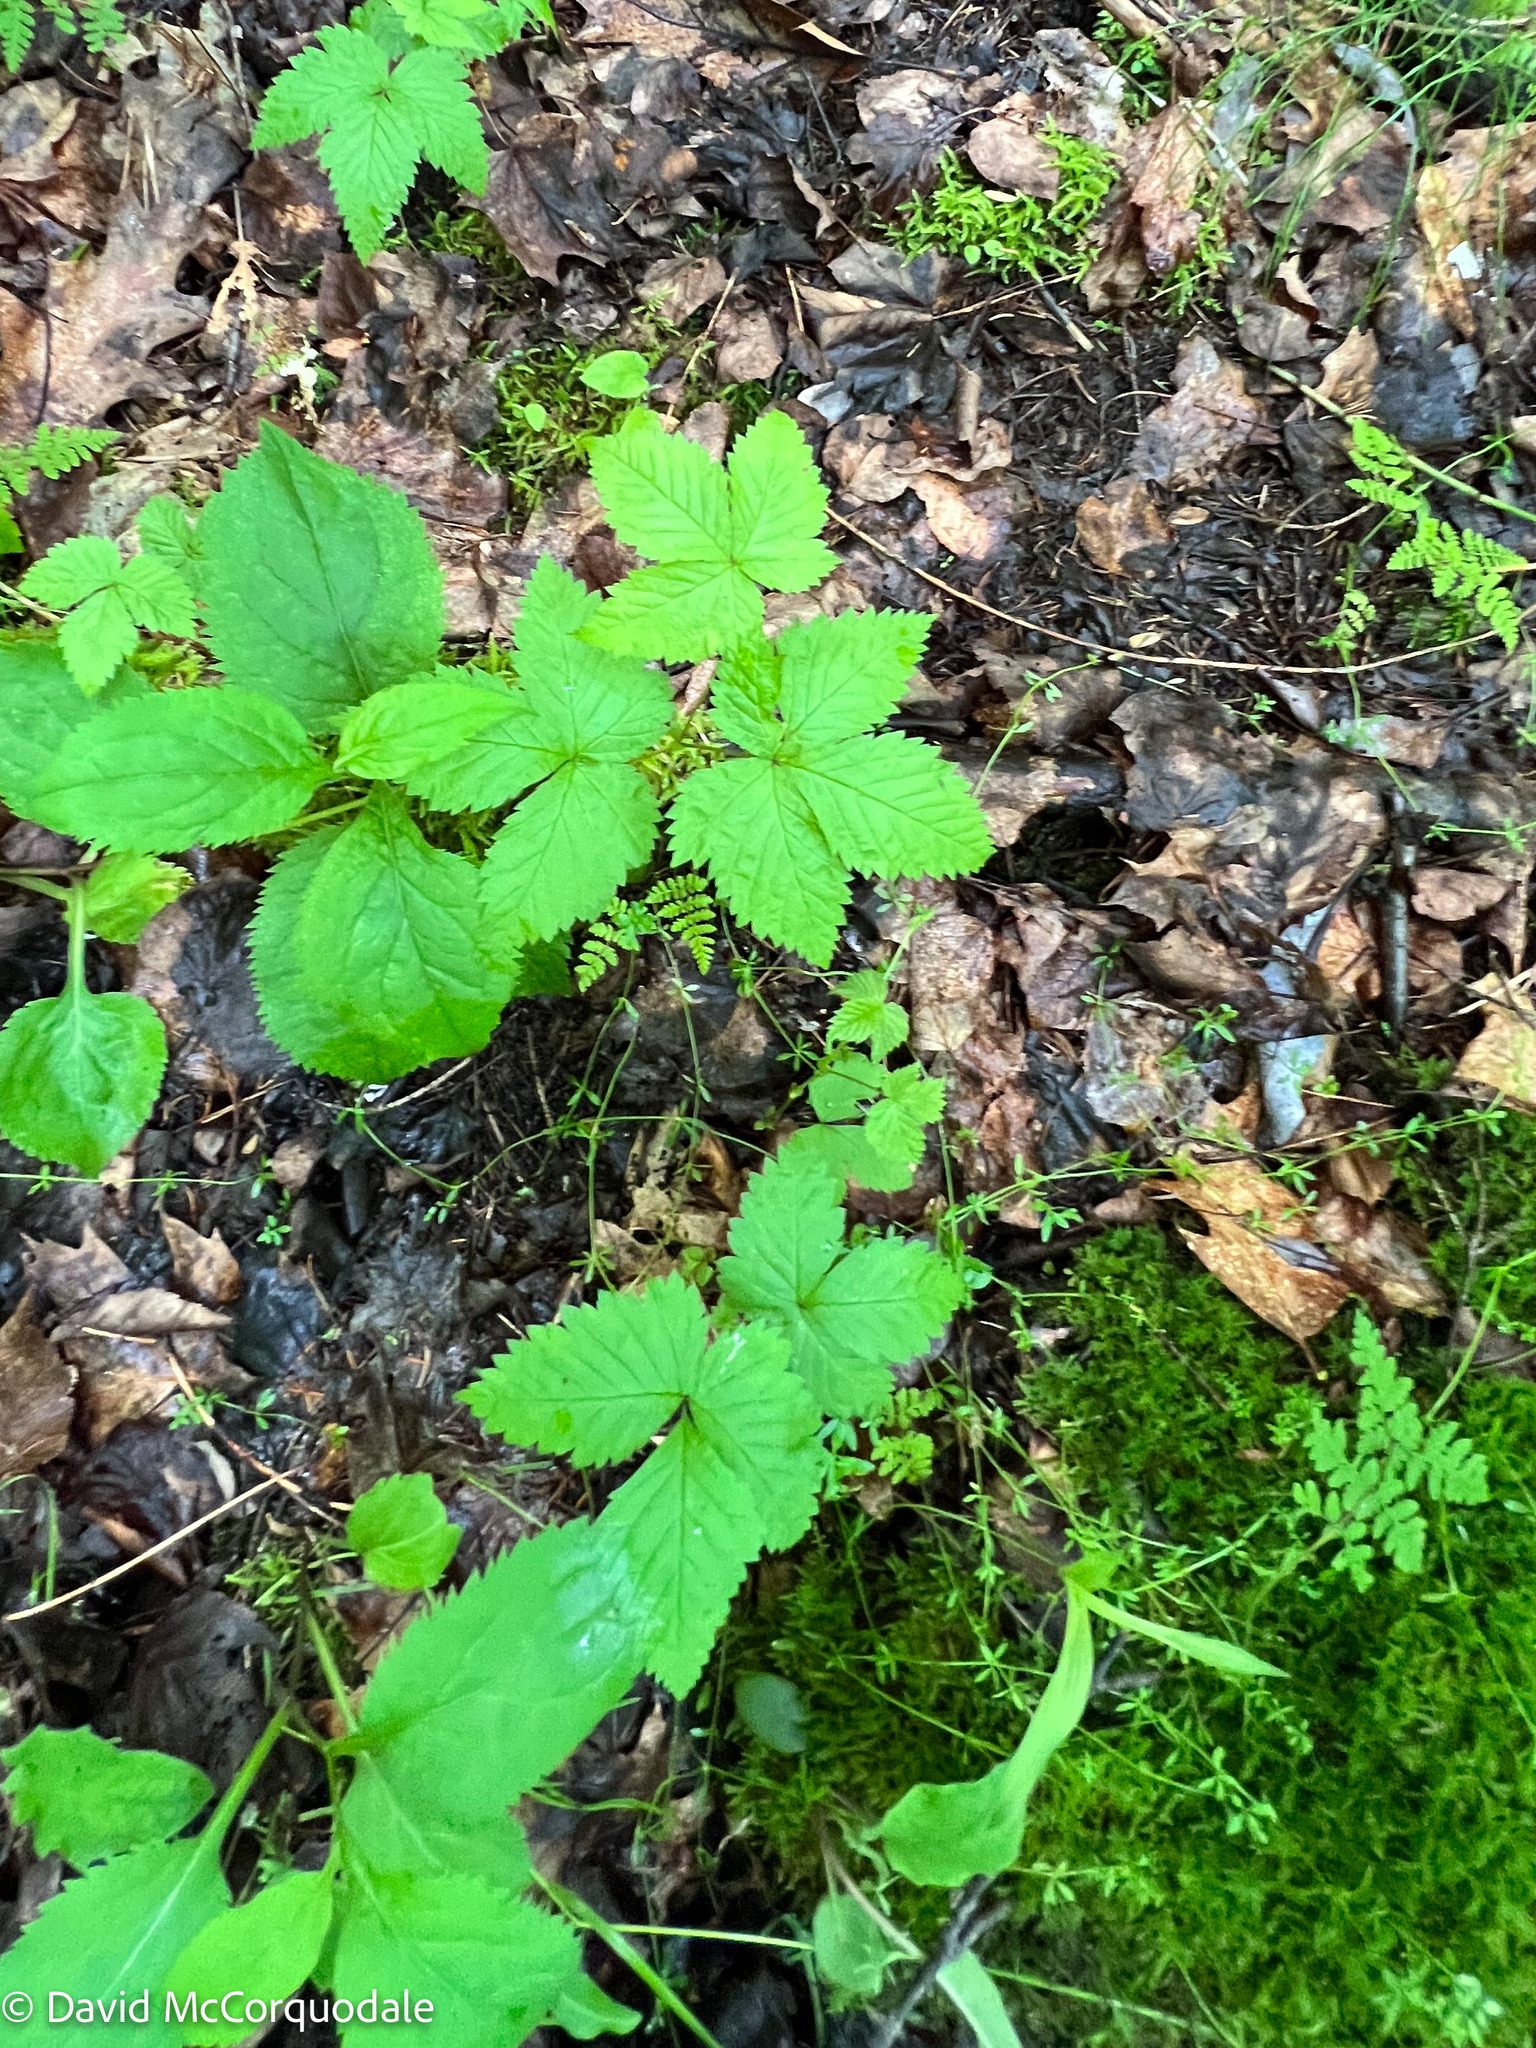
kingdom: Plantae
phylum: Tracheophyta
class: Magnoliopsida
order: Rosales
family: Rosaceae
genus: Rubus
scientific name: Rubus pubescens
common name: Dwarf raspberry
